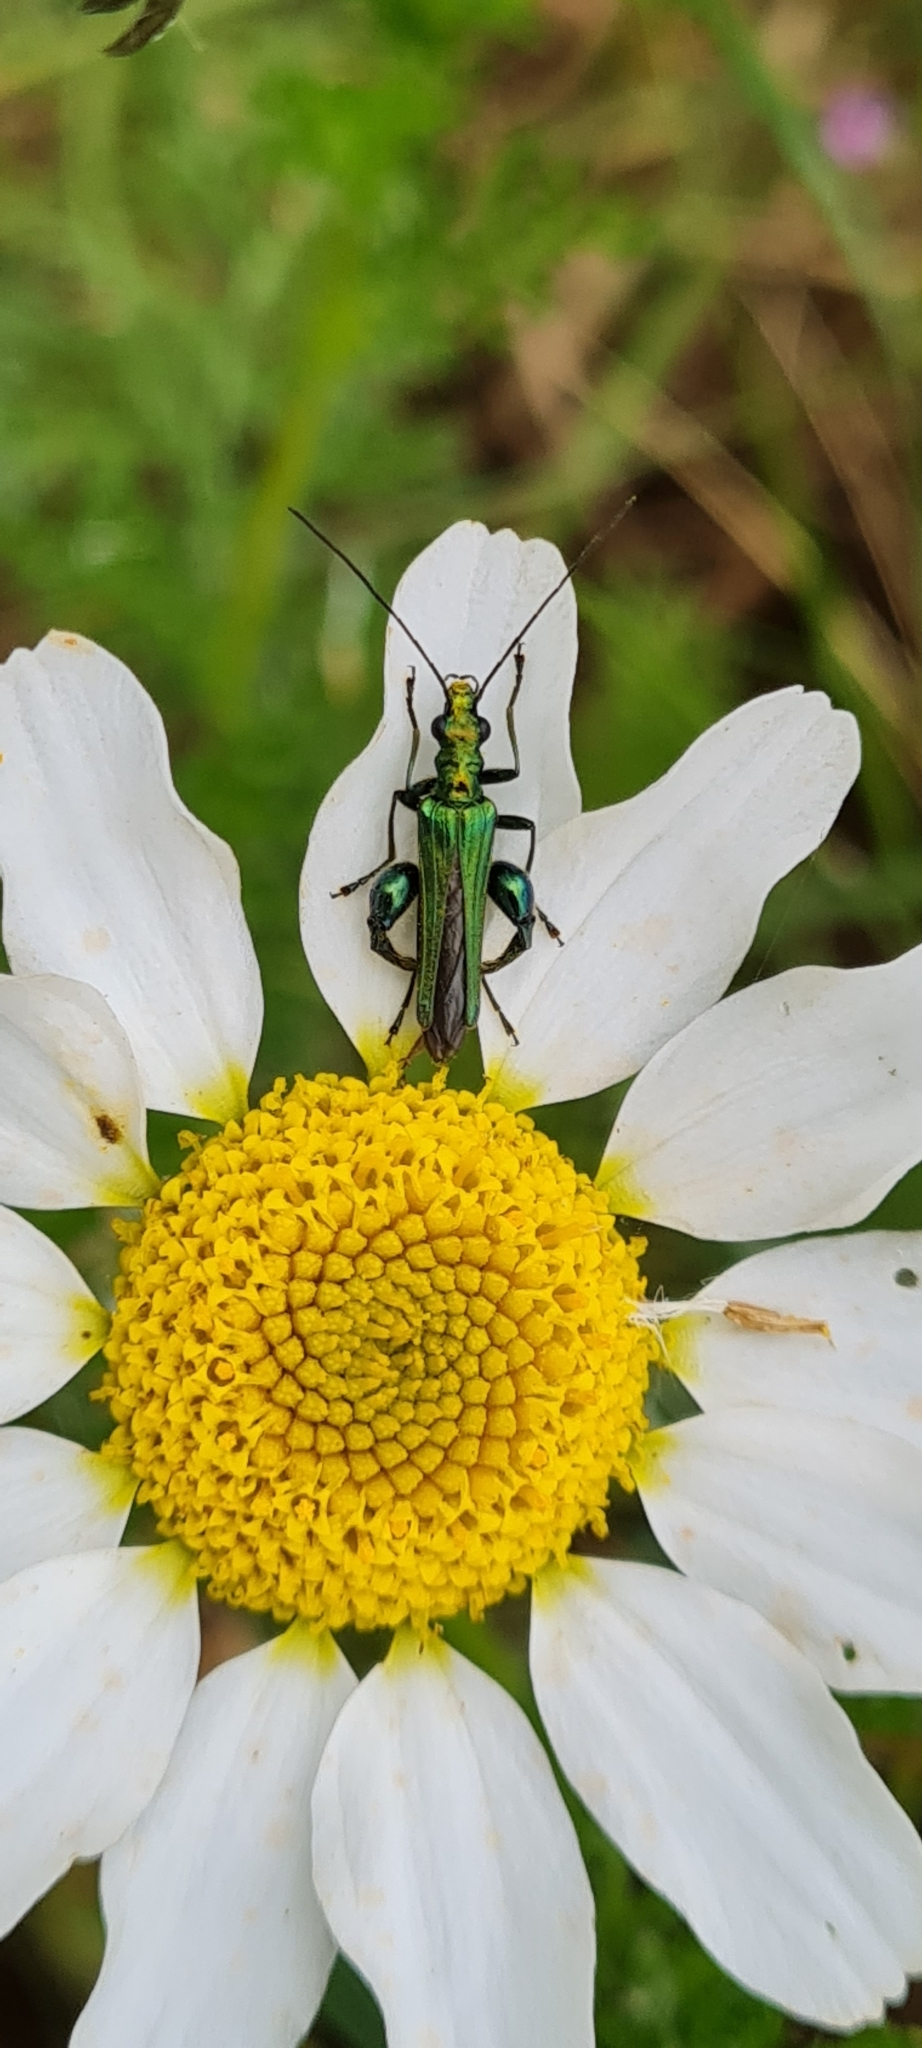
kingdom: Animalia
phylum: Arthropoda
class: Insecta
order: Coleoptera
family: Oedemeridae
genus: Oedemera
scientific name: Oedemera nobilis
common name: Swollen-thighed beetle
